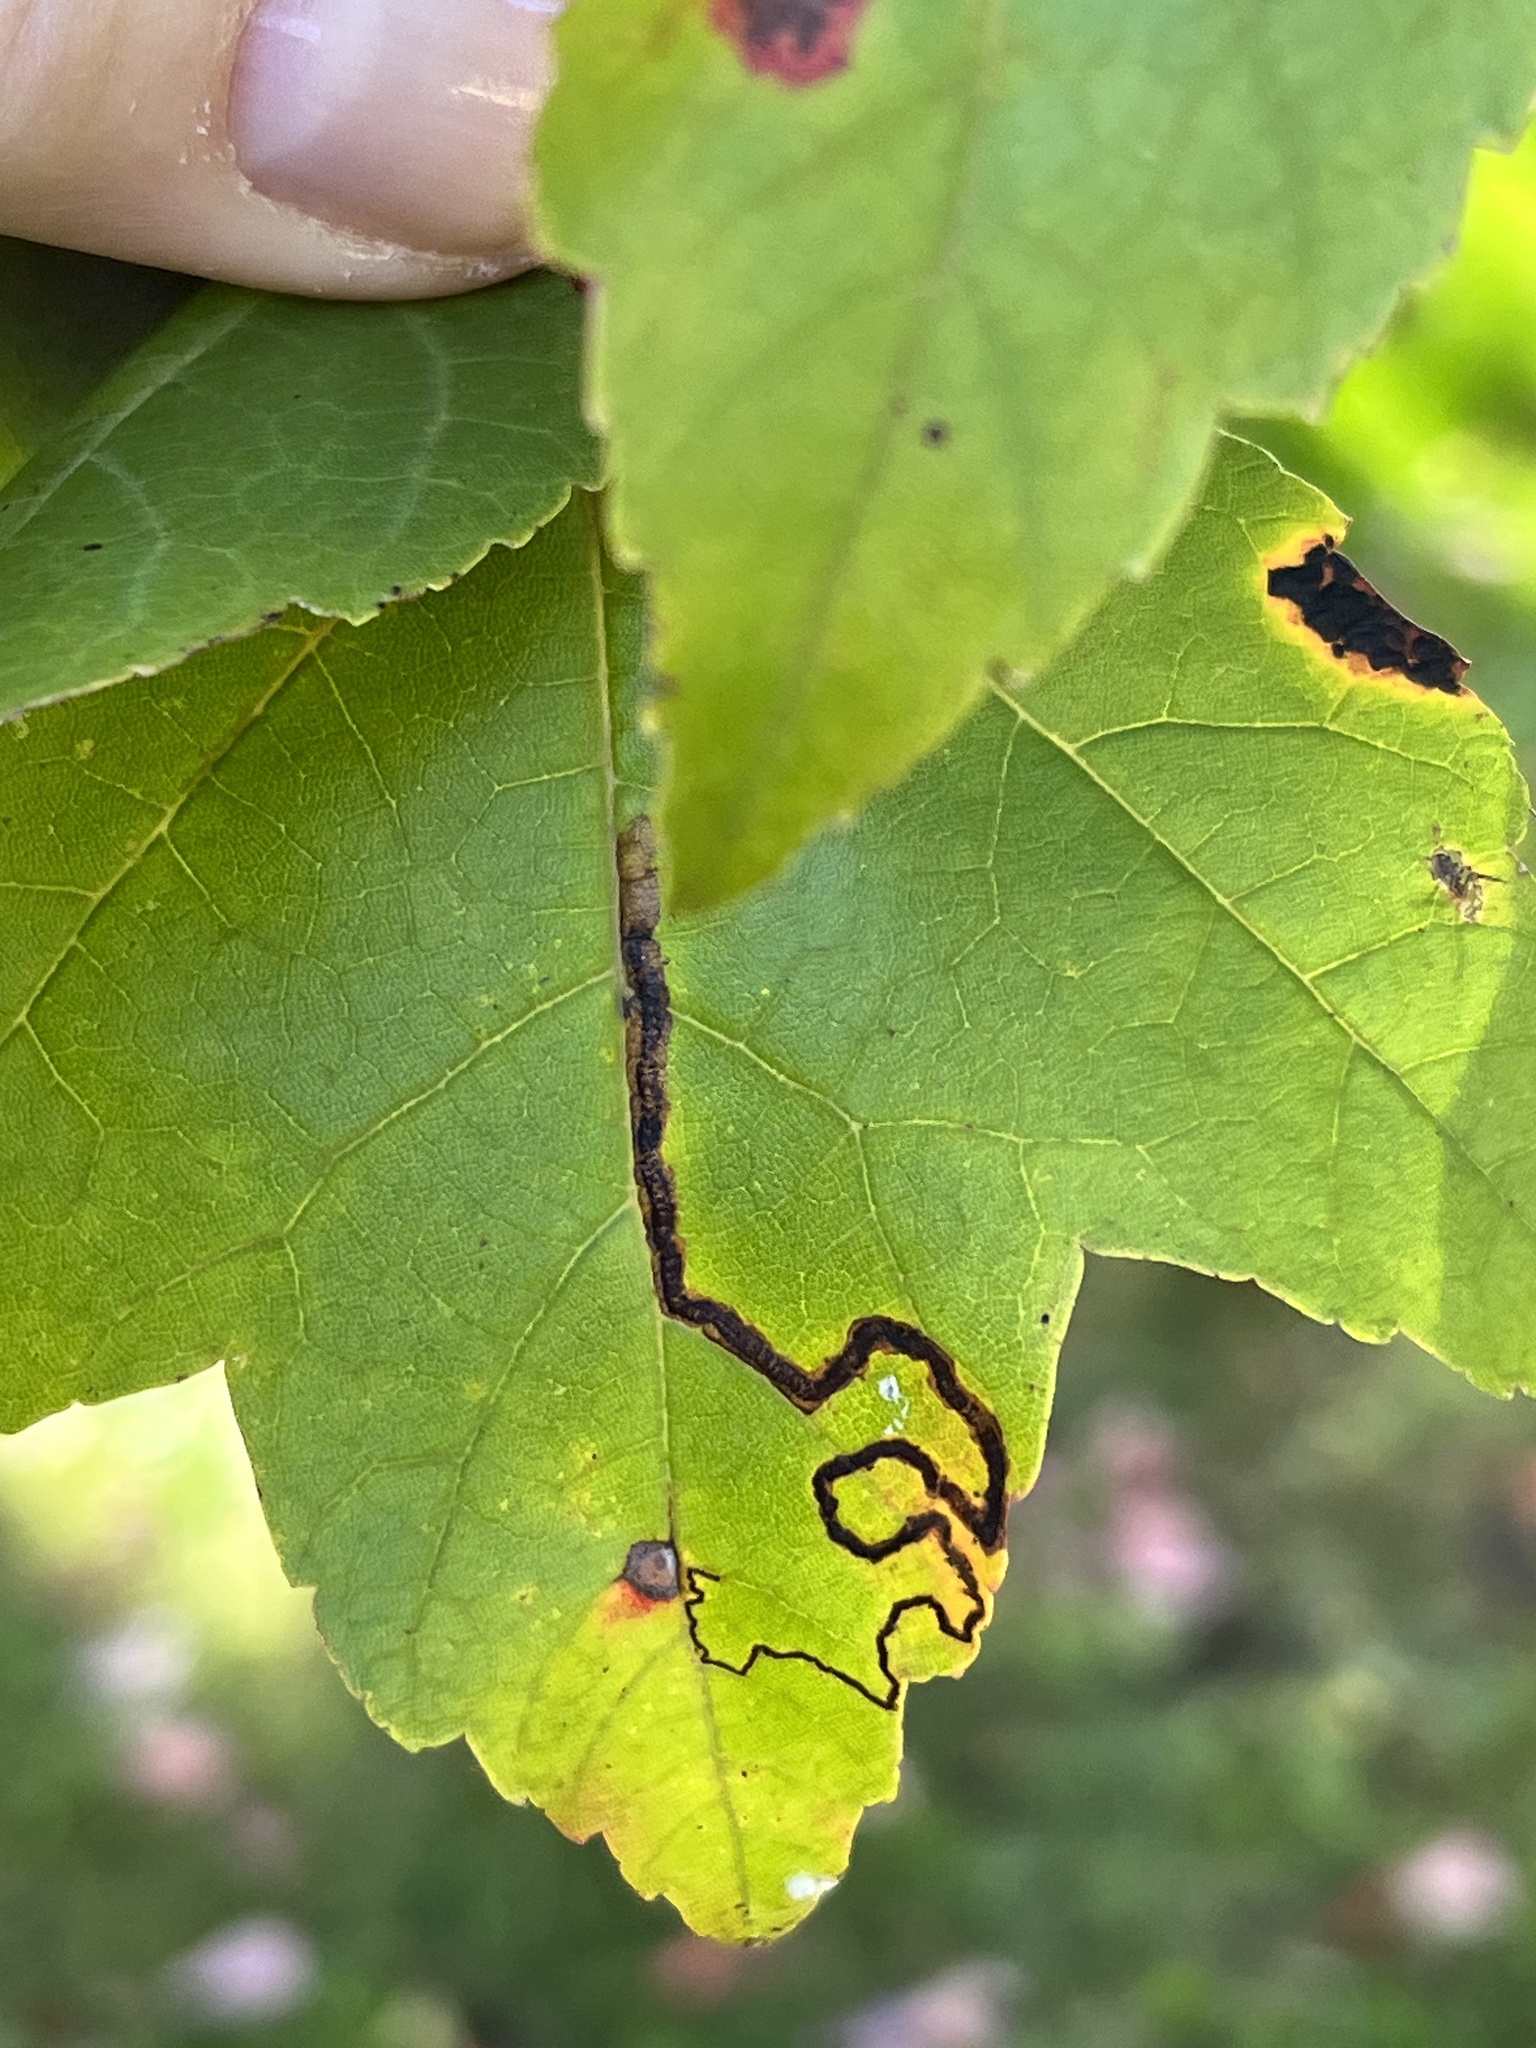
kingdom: Animalia
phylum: Arthropoda
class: Insecta
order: Lepidoptera
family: Nepticulidae
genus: Glaucolepis
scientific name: Glaucolepis saccharella
